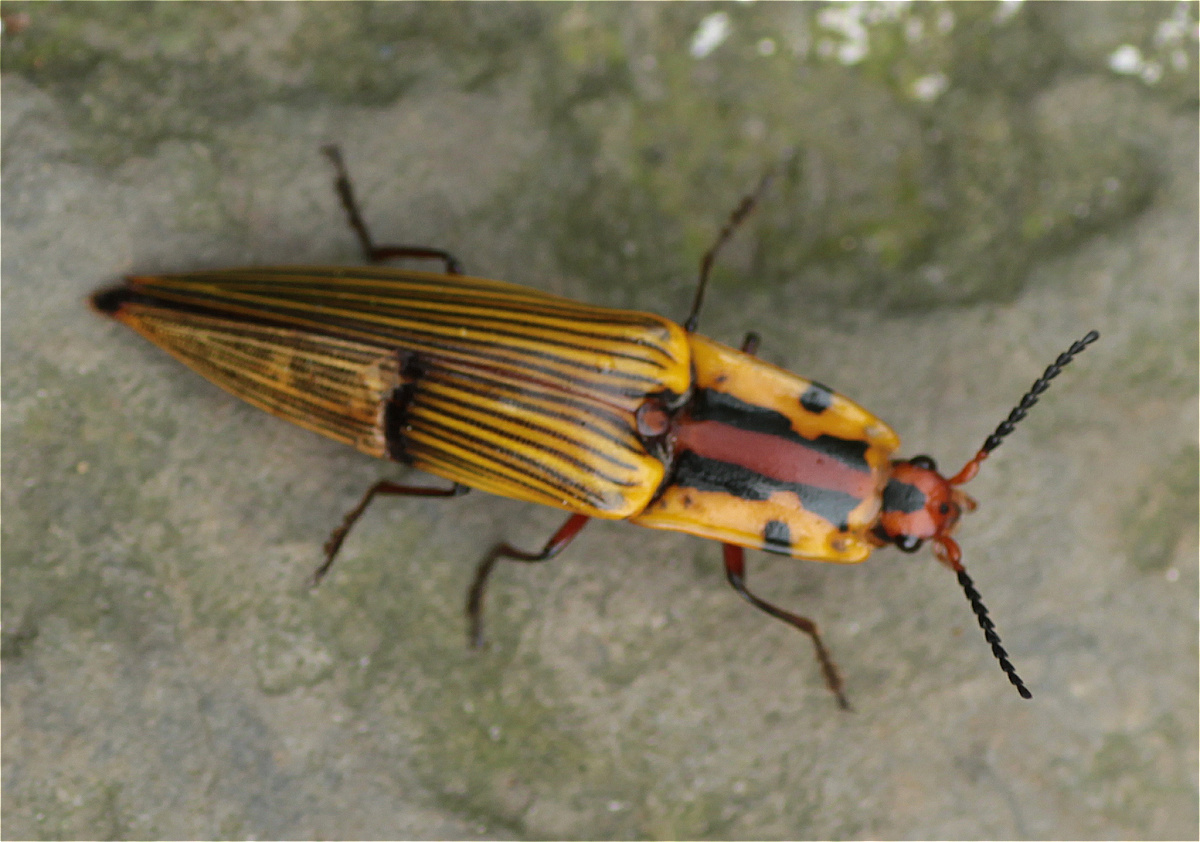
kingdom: Animalia
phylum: Arthropoda
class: Insecta
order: Coleoptera
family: Elateridae
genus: Semiotus
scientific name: Semiotus
